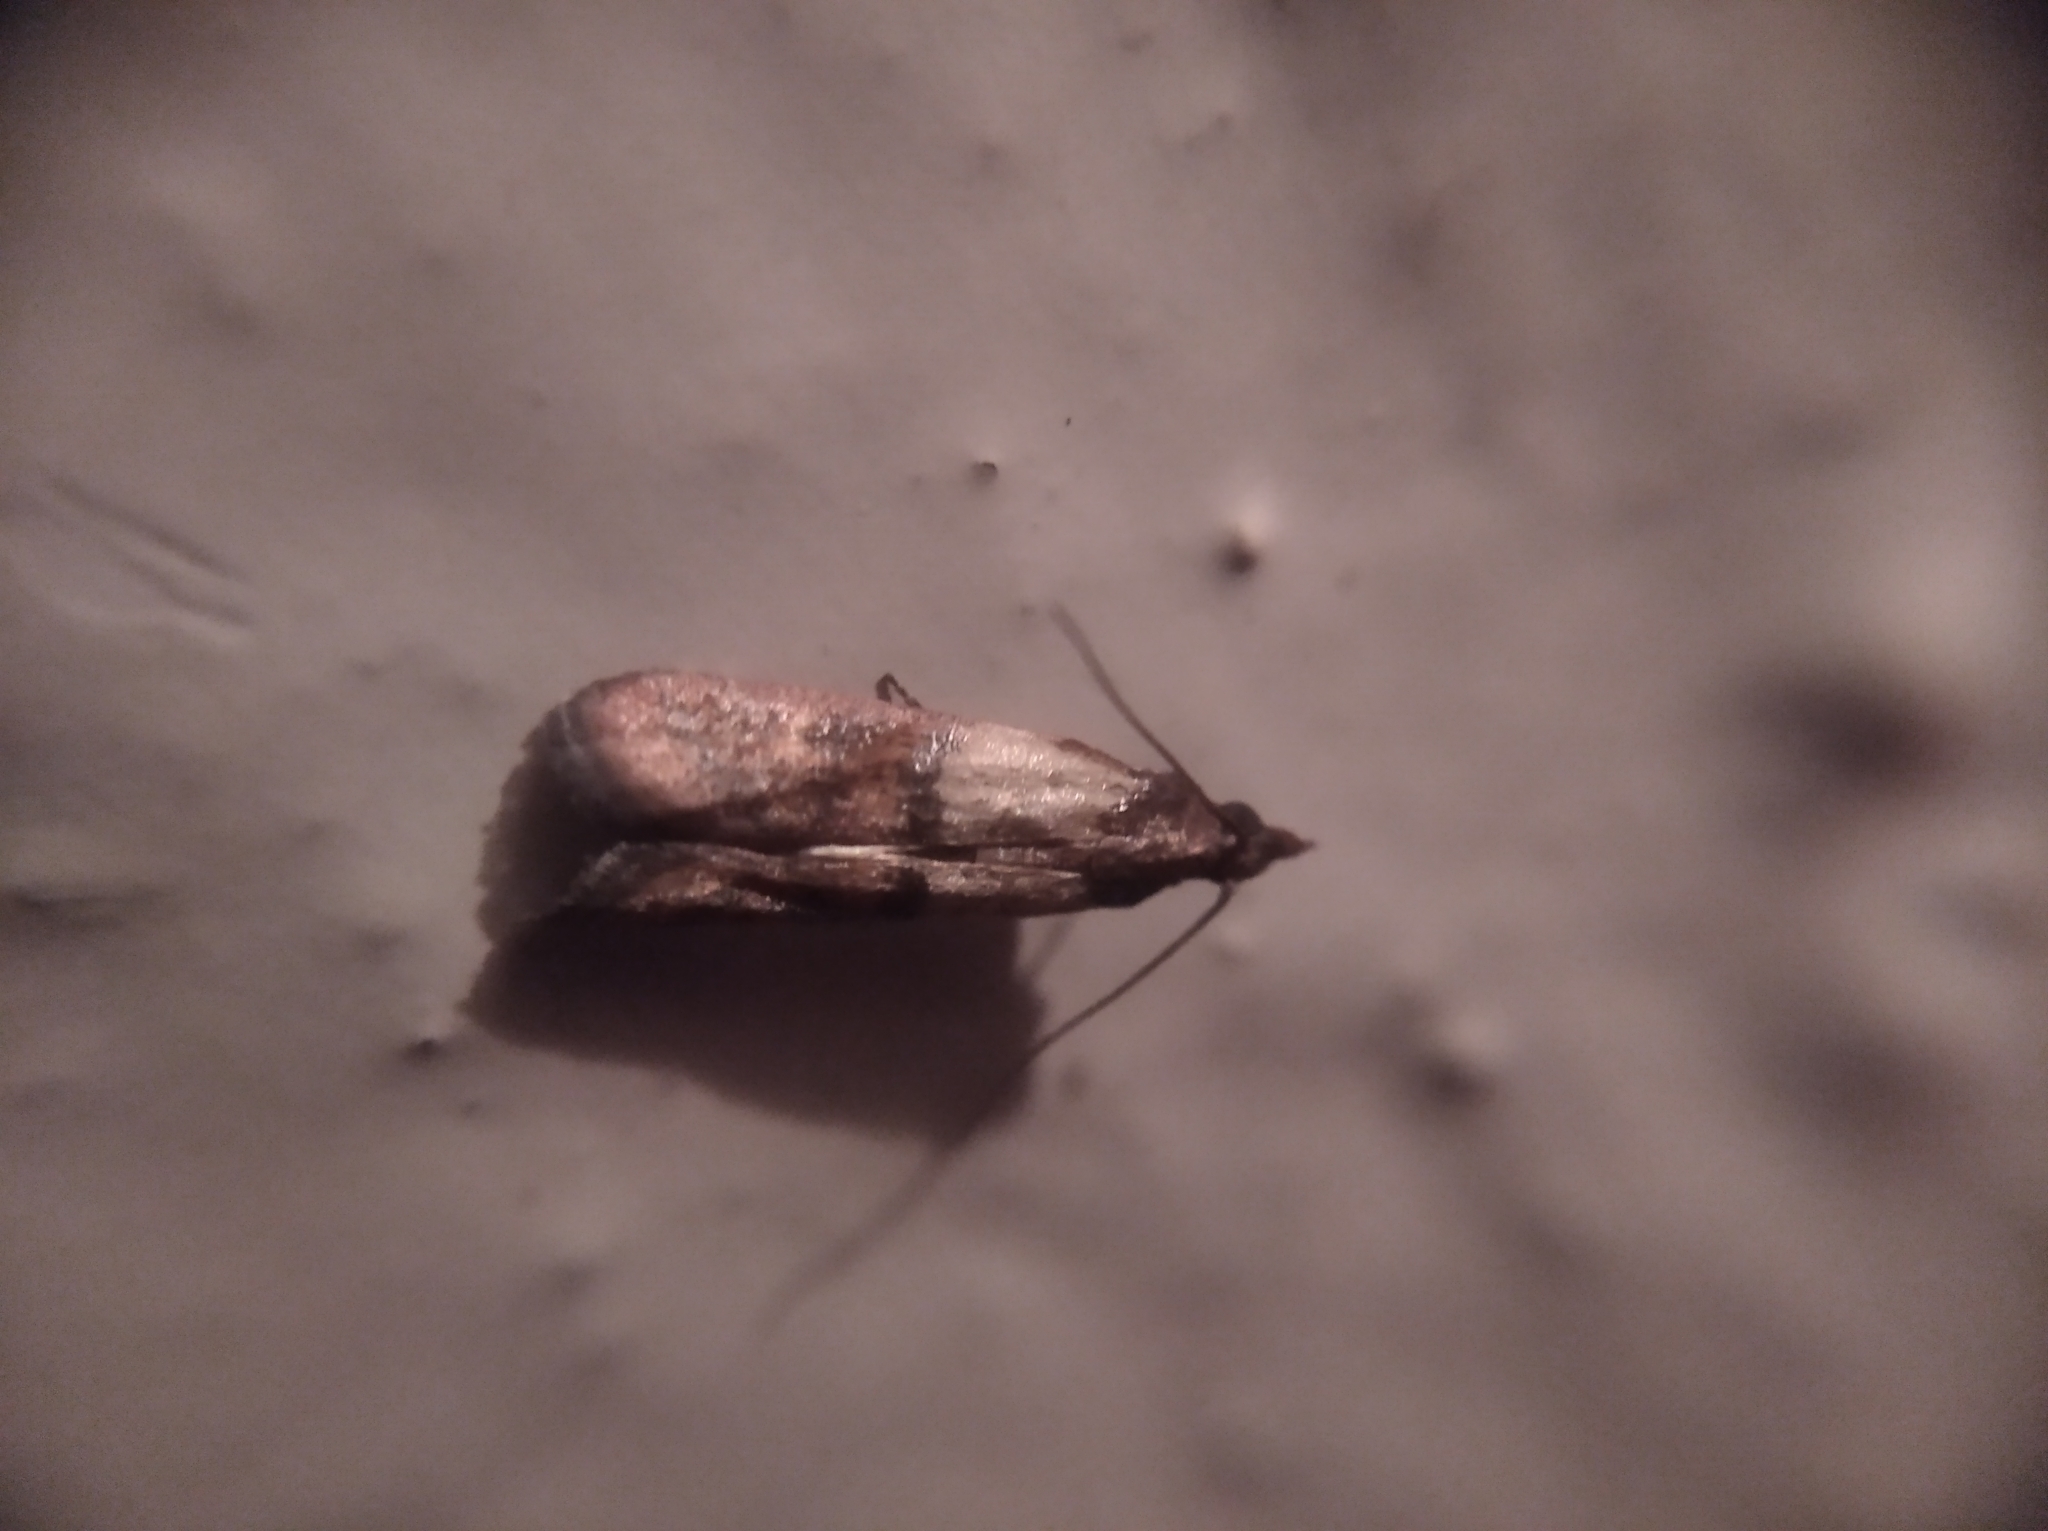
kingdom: Animalia
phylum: Arthropoda
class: Insecta
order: Lepidoptera
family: Pyralidae
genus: Plodia
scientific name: Plodia interpunctella
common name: Indian meal moth
